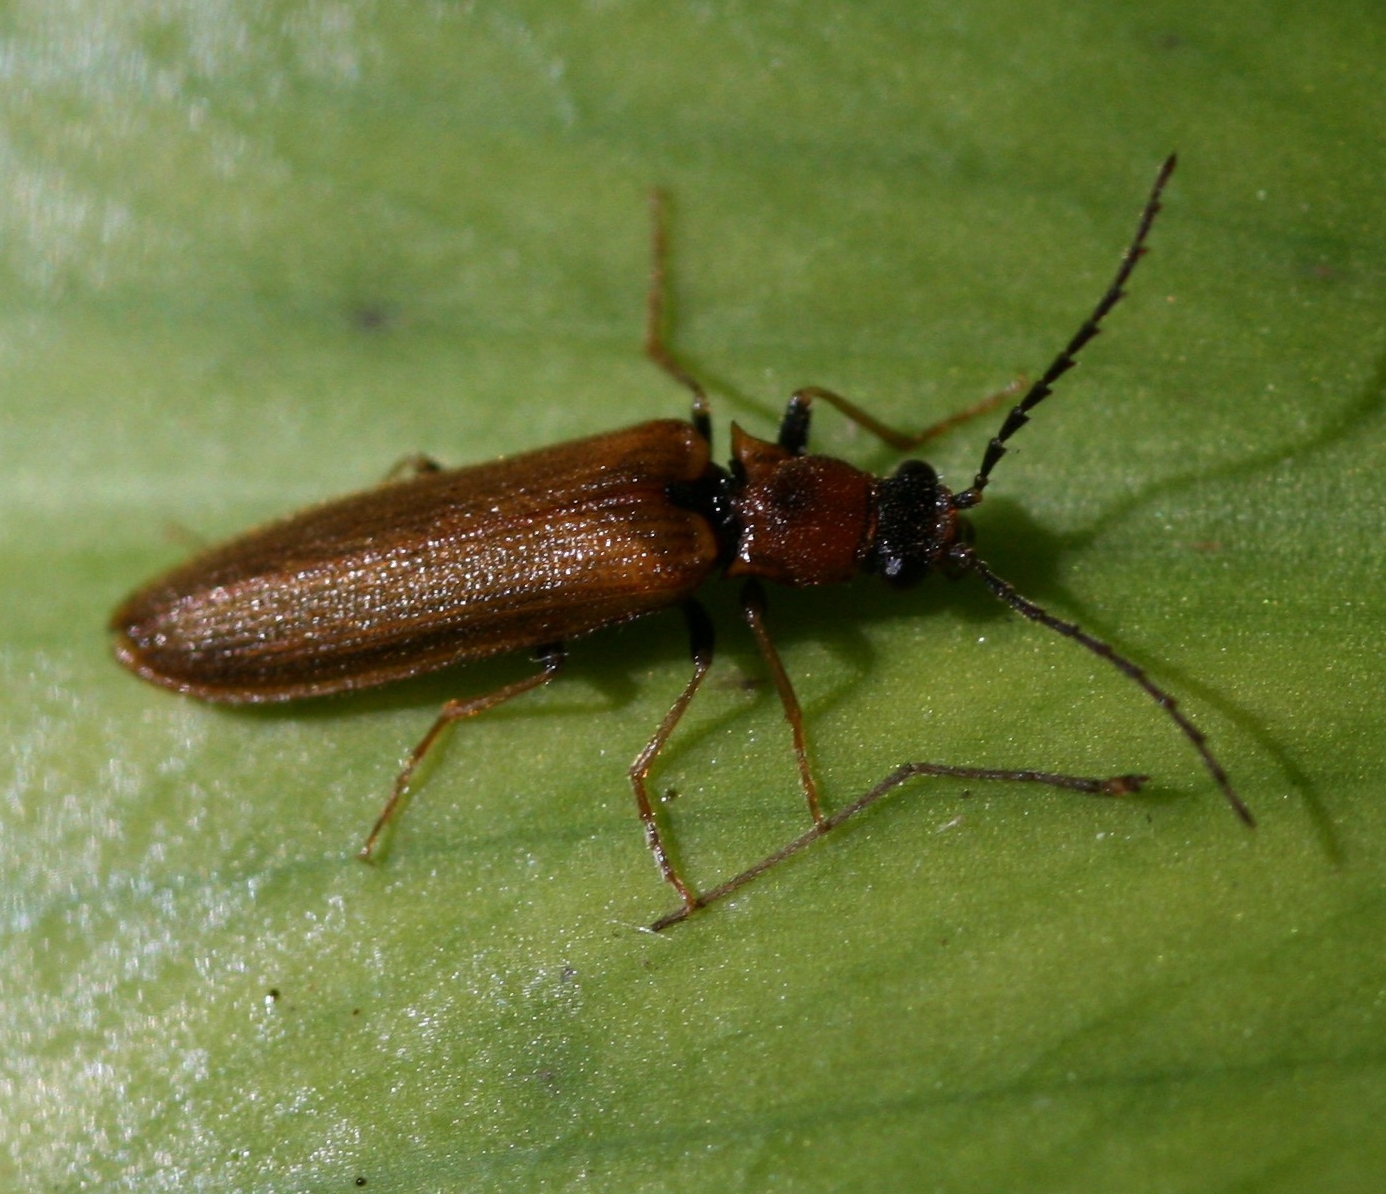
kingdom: Animalia
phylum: Arthropoda
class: Insecta
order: Coleoptera
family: Elateridae
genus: Denticollis
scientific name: Denticollis linearis
